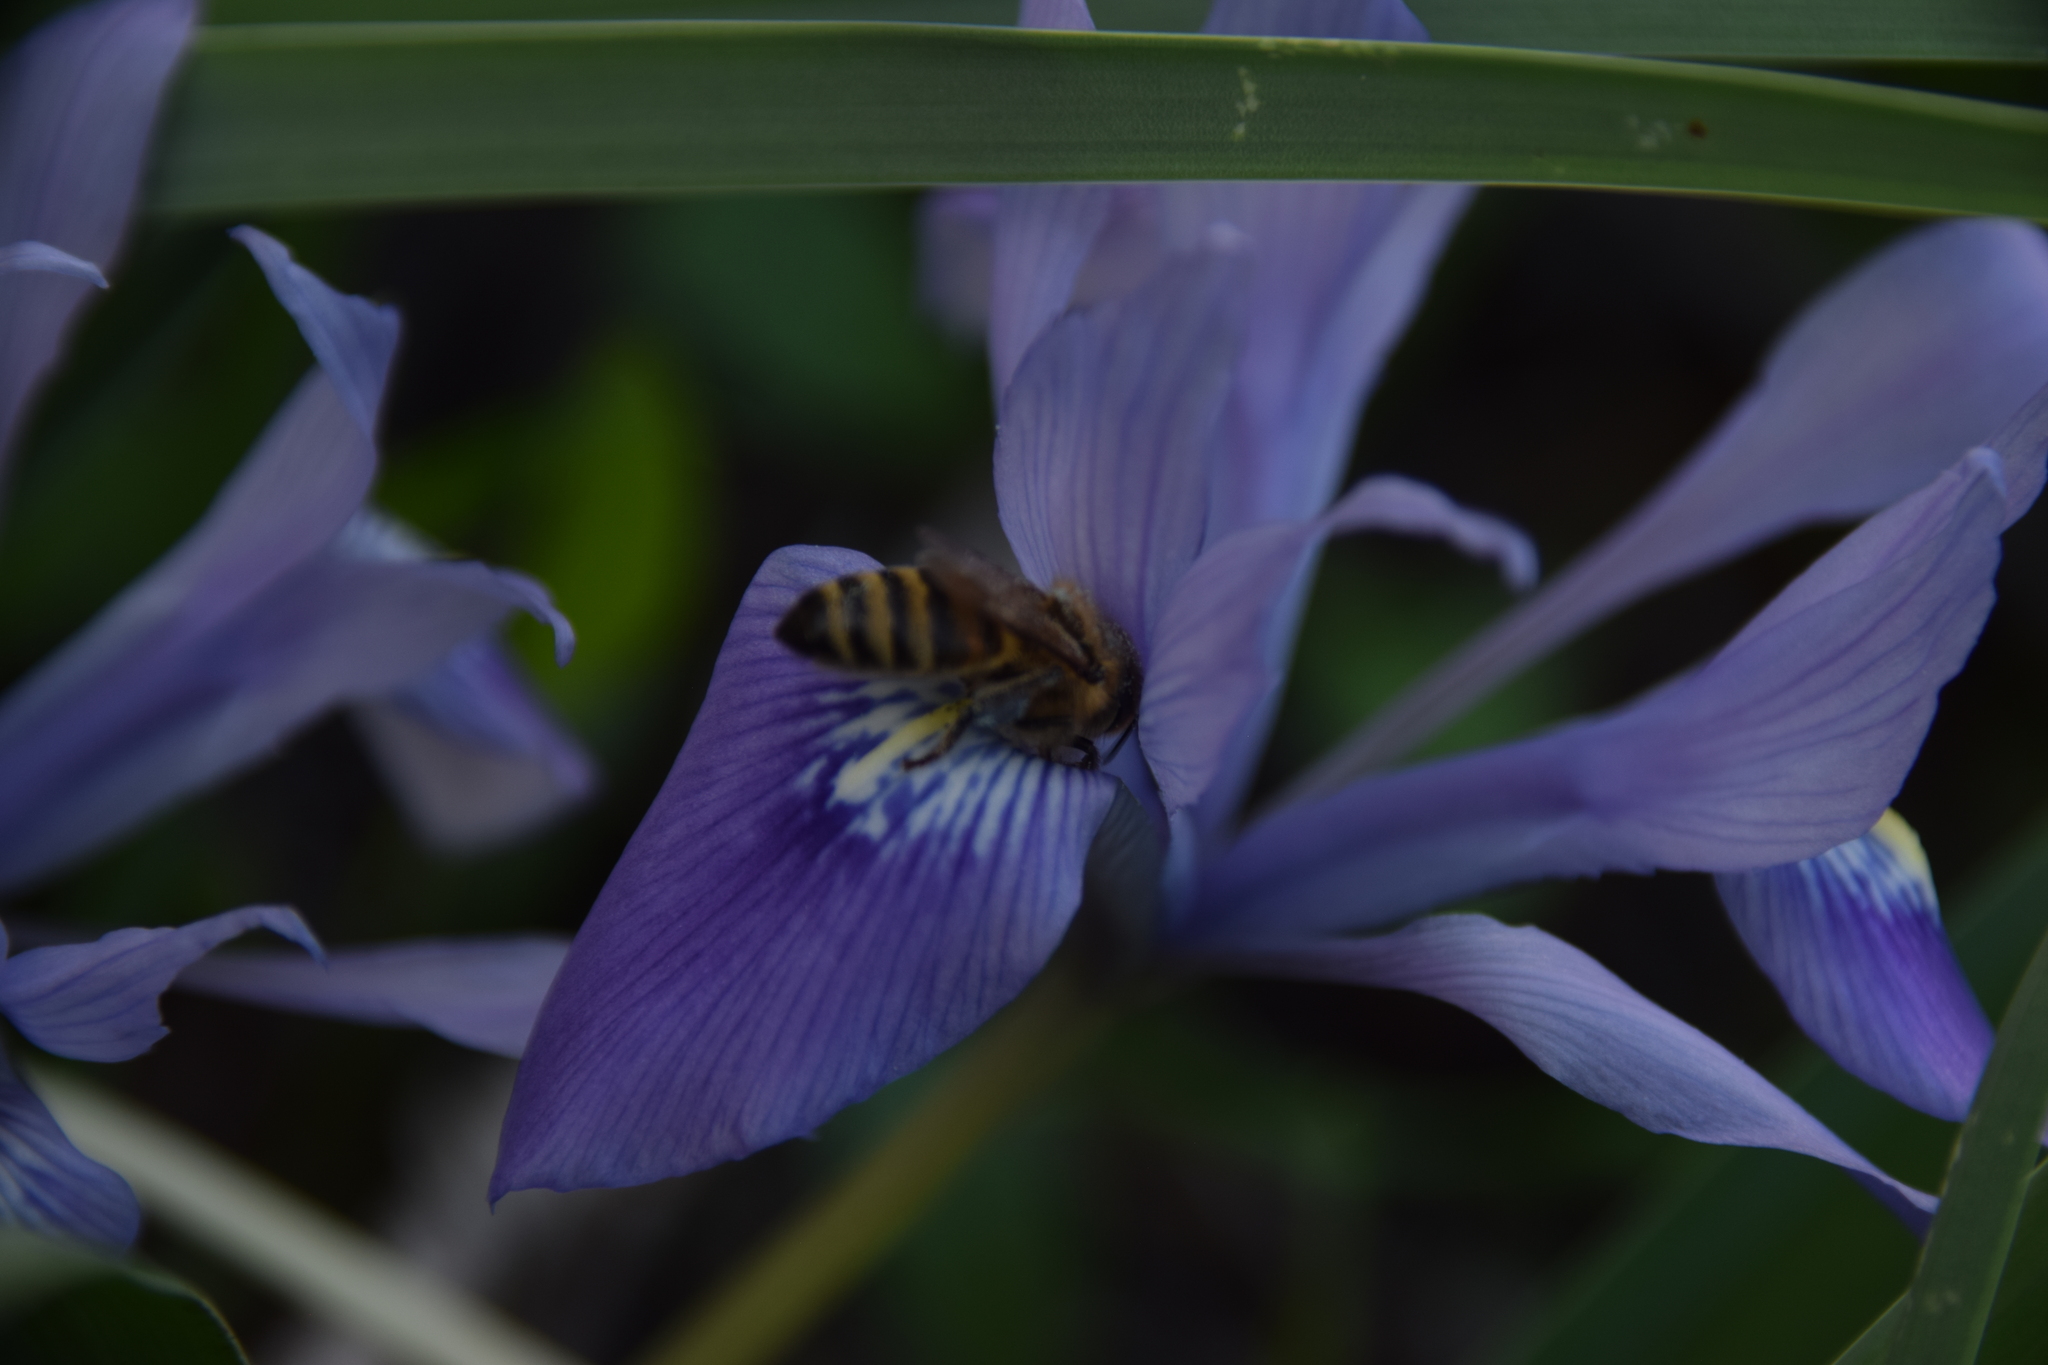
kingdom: Animalia
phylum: Arthropoda
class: Insecta
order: Hymenoptera
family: Apidae
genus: Apis
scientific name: Apis mellifera
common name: Honey bee
